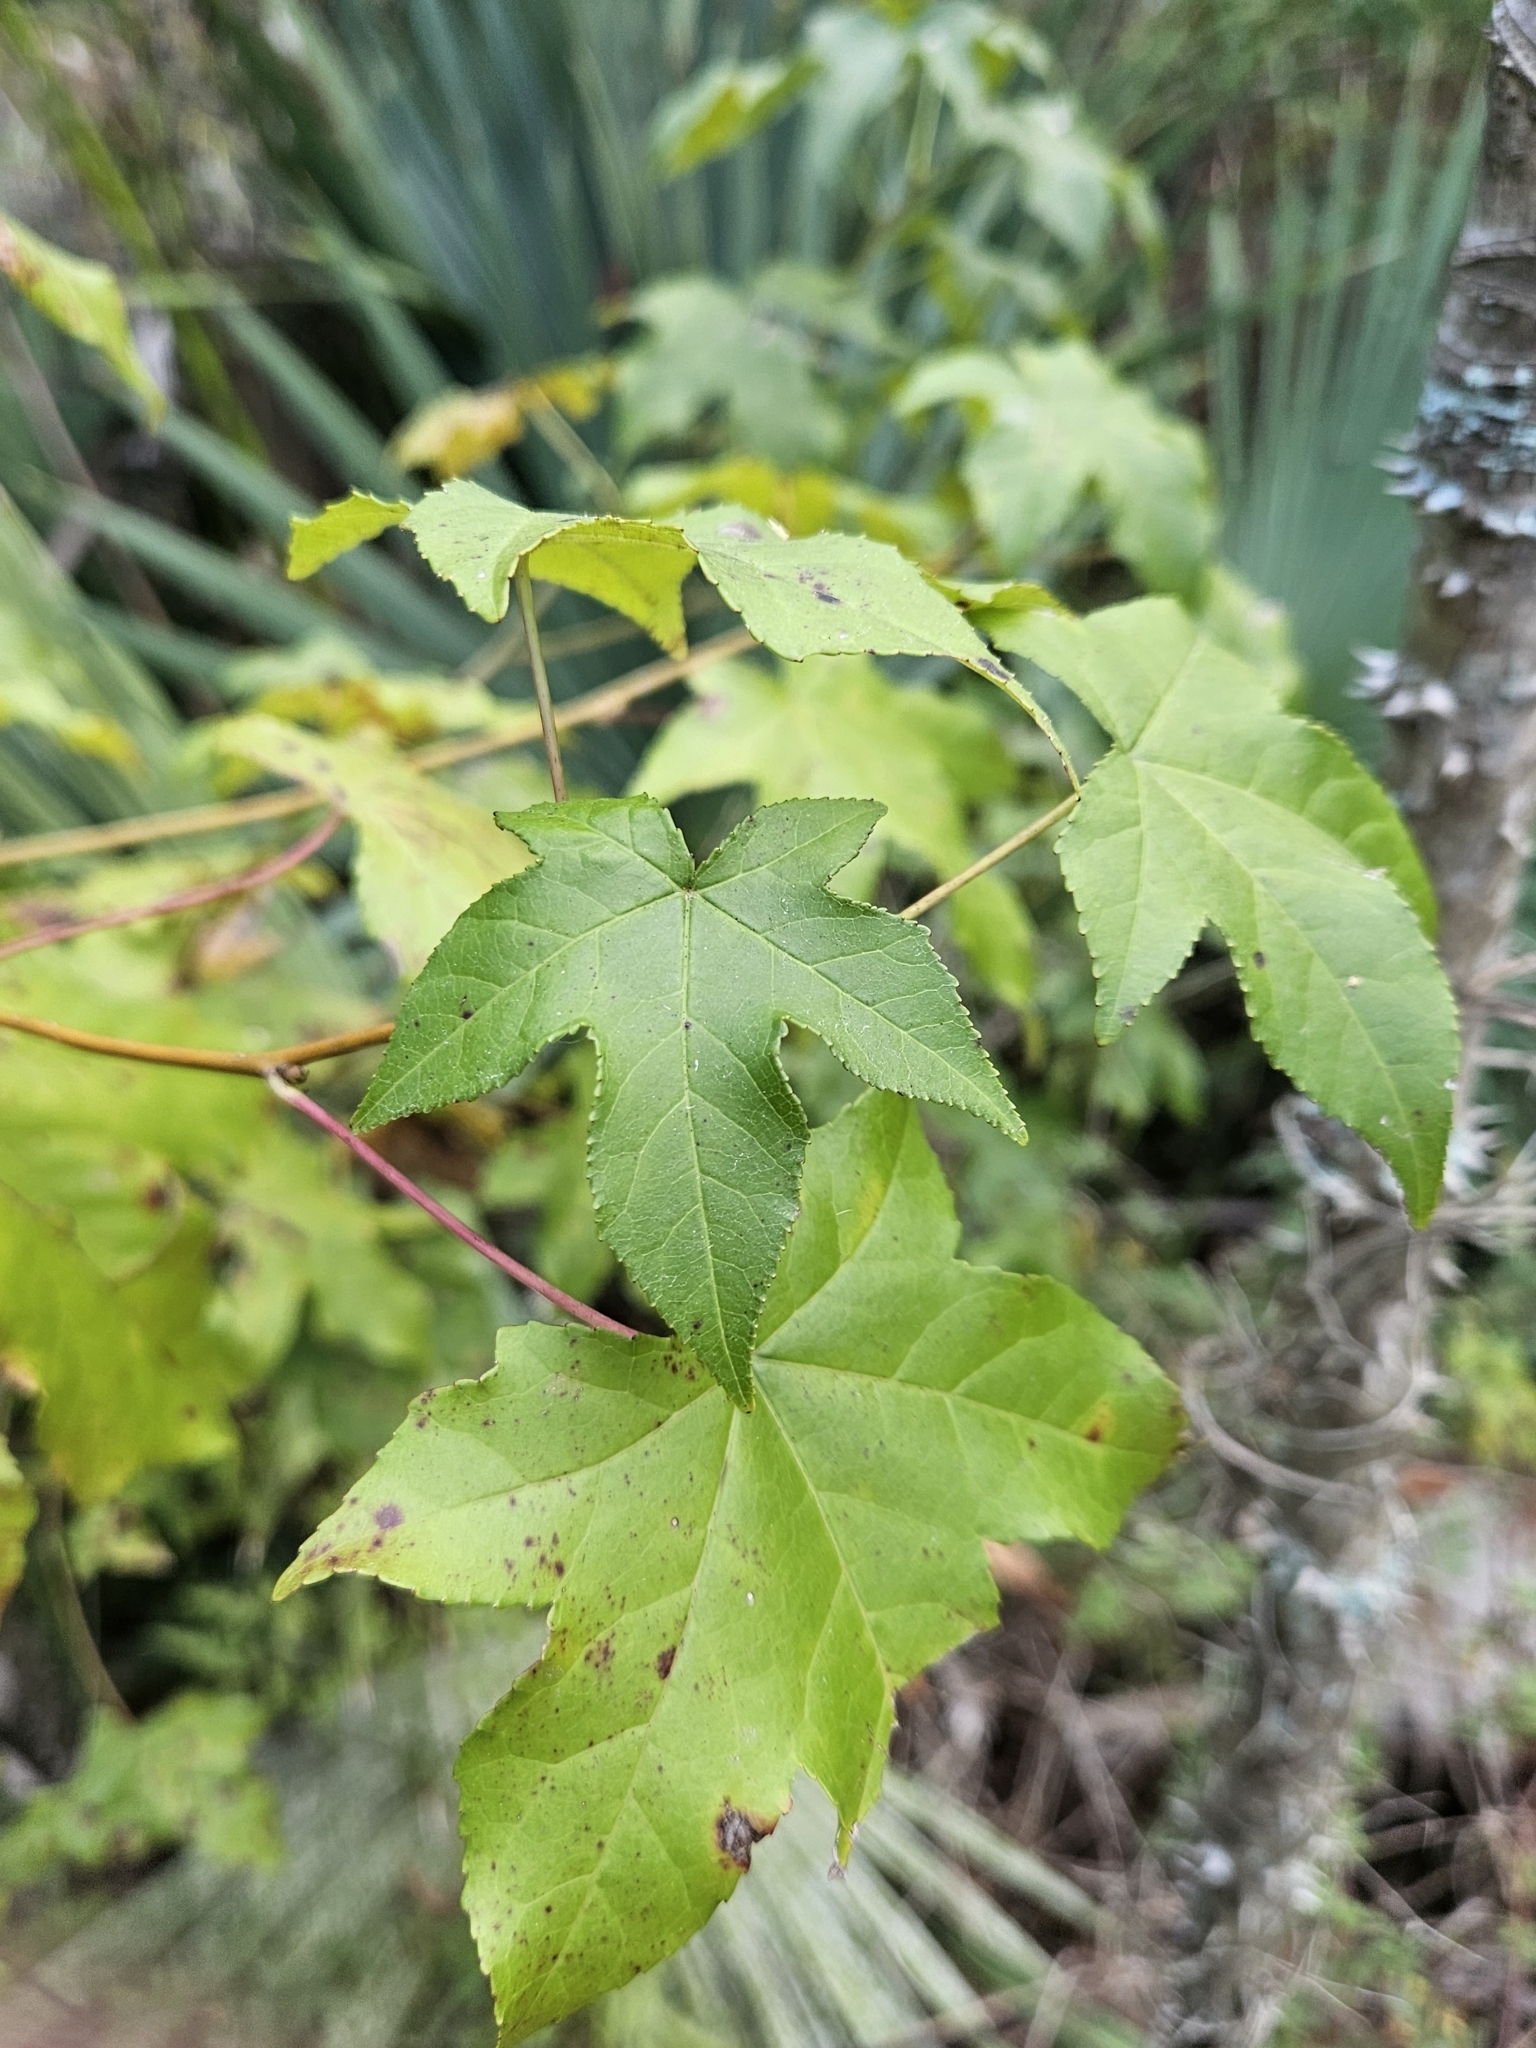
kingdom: Plantae
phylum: Tracheophyta
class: Magnoliopsida
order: Saxifragales
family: Altingiaceae
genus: Liquidambar
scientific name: Liquidambar styraciflua
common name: Sweet gum
